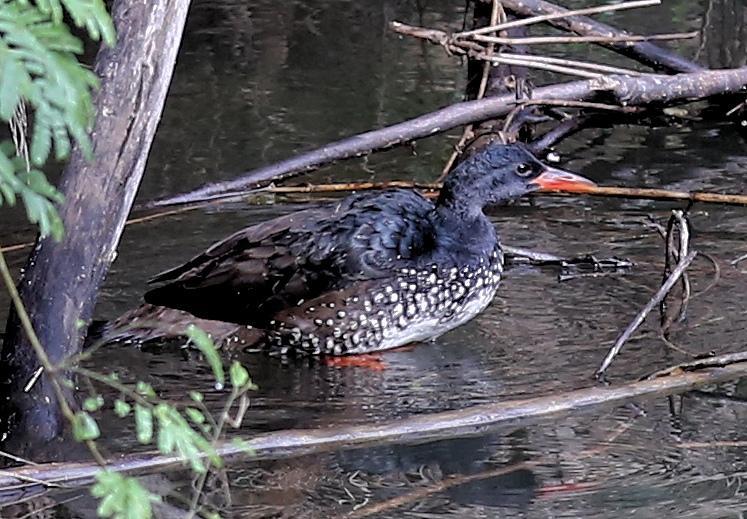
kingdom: Animalia
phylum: Chordata
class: Aves
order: Gruiformes
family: Heliornithidae
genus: Podica
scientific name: Podica senegalensis
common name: African finfoot
